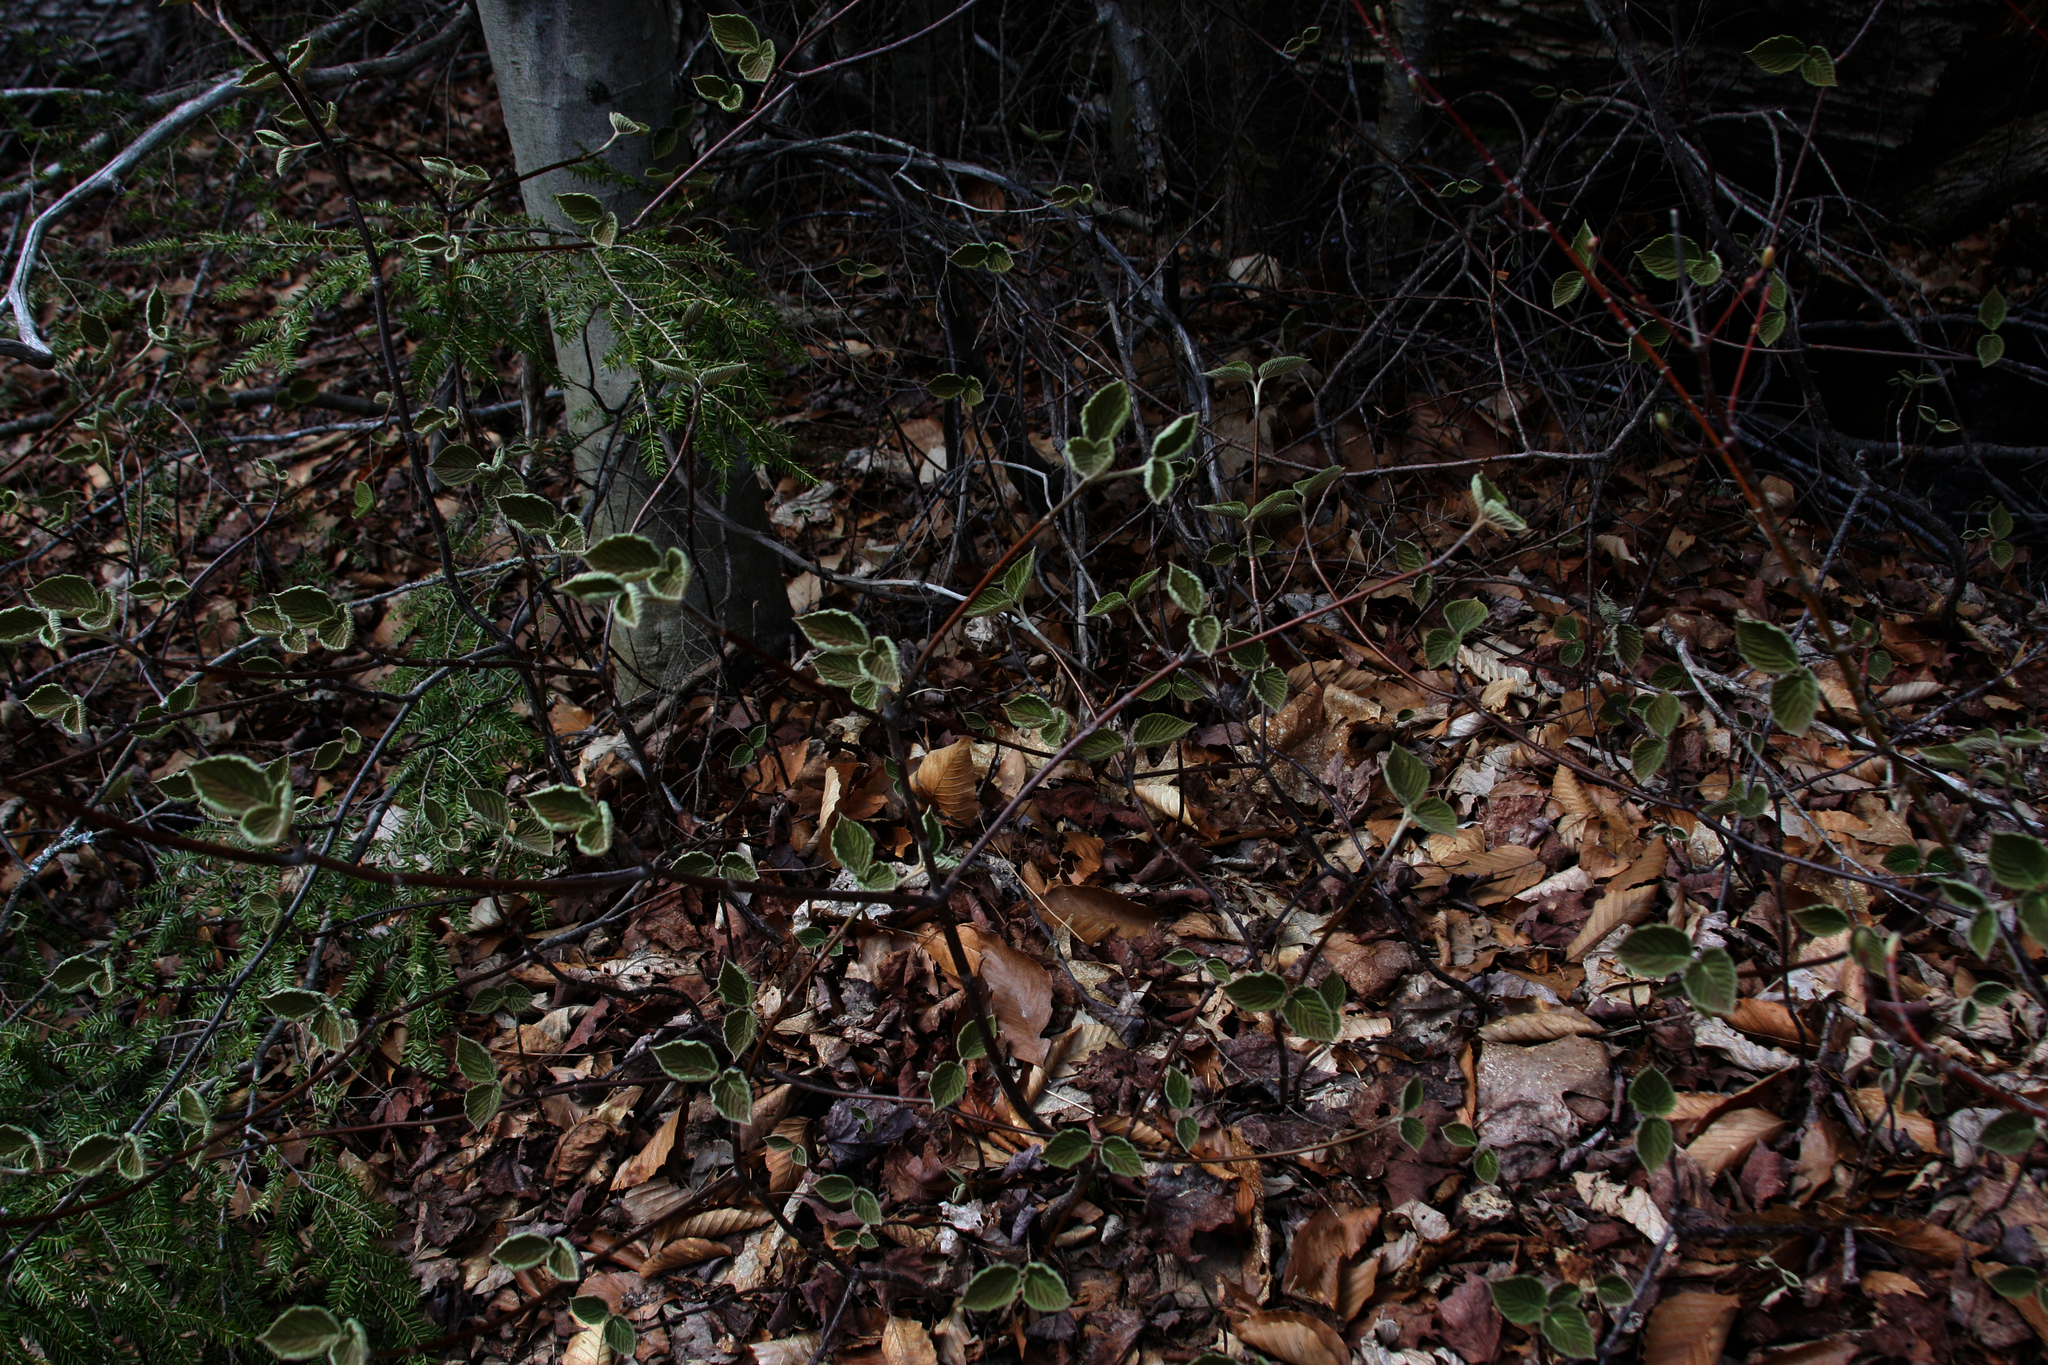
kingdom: Plantae
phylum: Tracheophyta
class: Magnoliopsida
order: Dipsacales
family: Viburnaceae
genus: Viburnum
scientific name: Viburnum lantanoides
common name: Hobblebush
